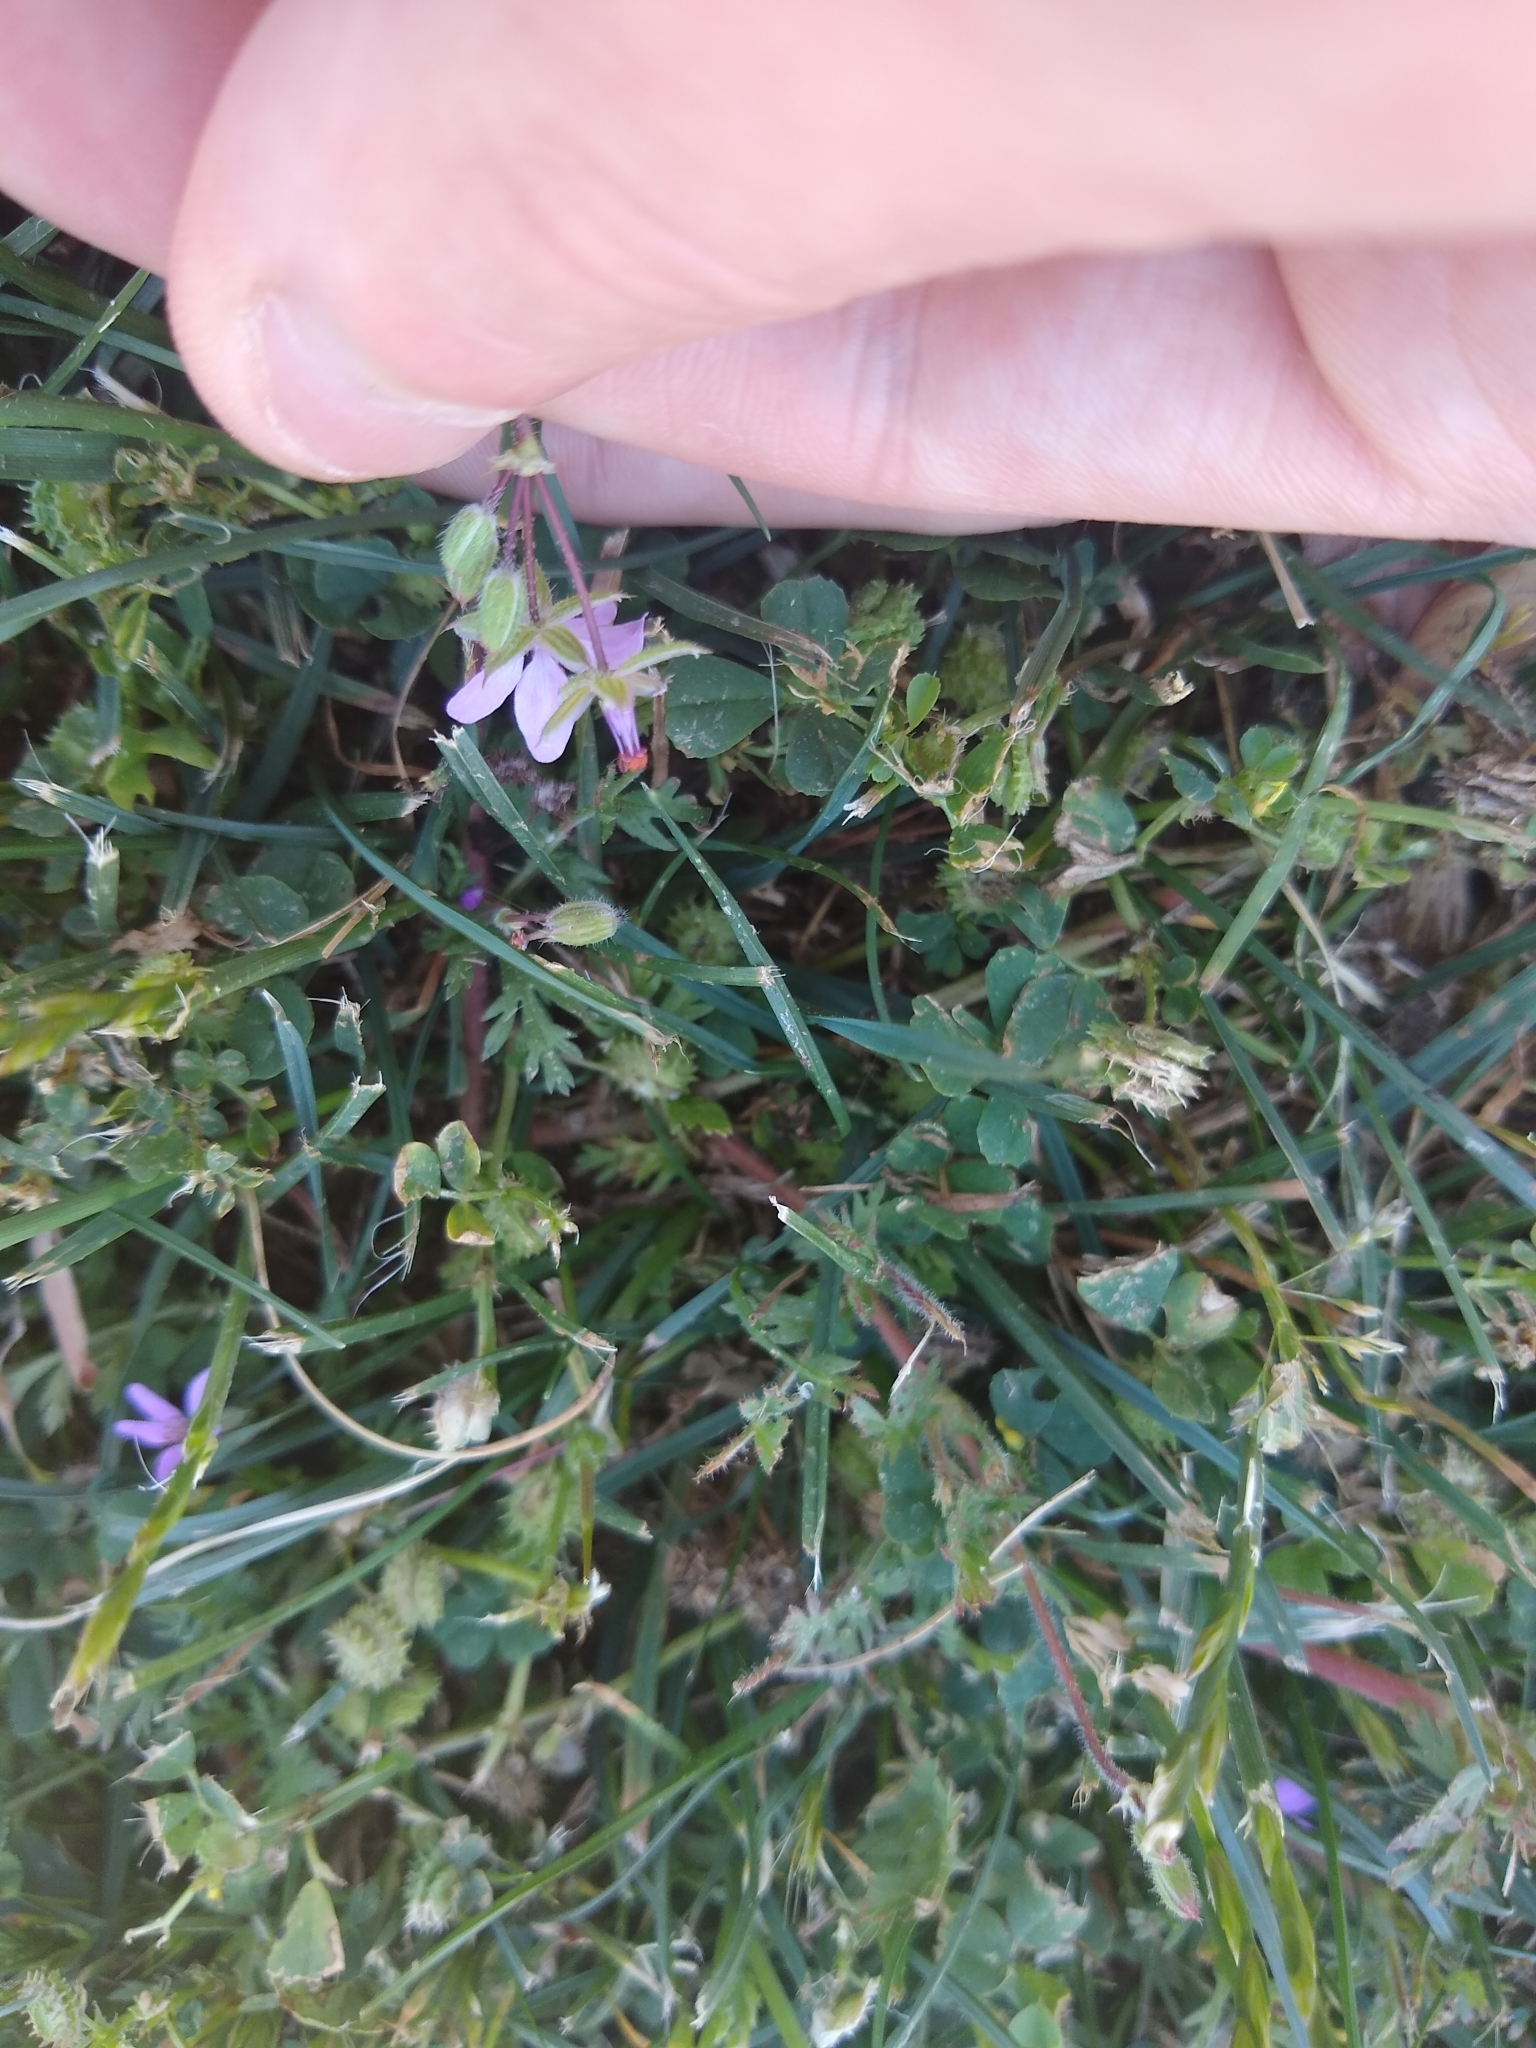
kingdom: Plantae
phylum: Tracheophyta
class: Magnoliopsida
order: Geraniales
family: Geraniaceae
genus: Erodium
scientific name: Erodium cicutarium
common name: Common stork's-bill
